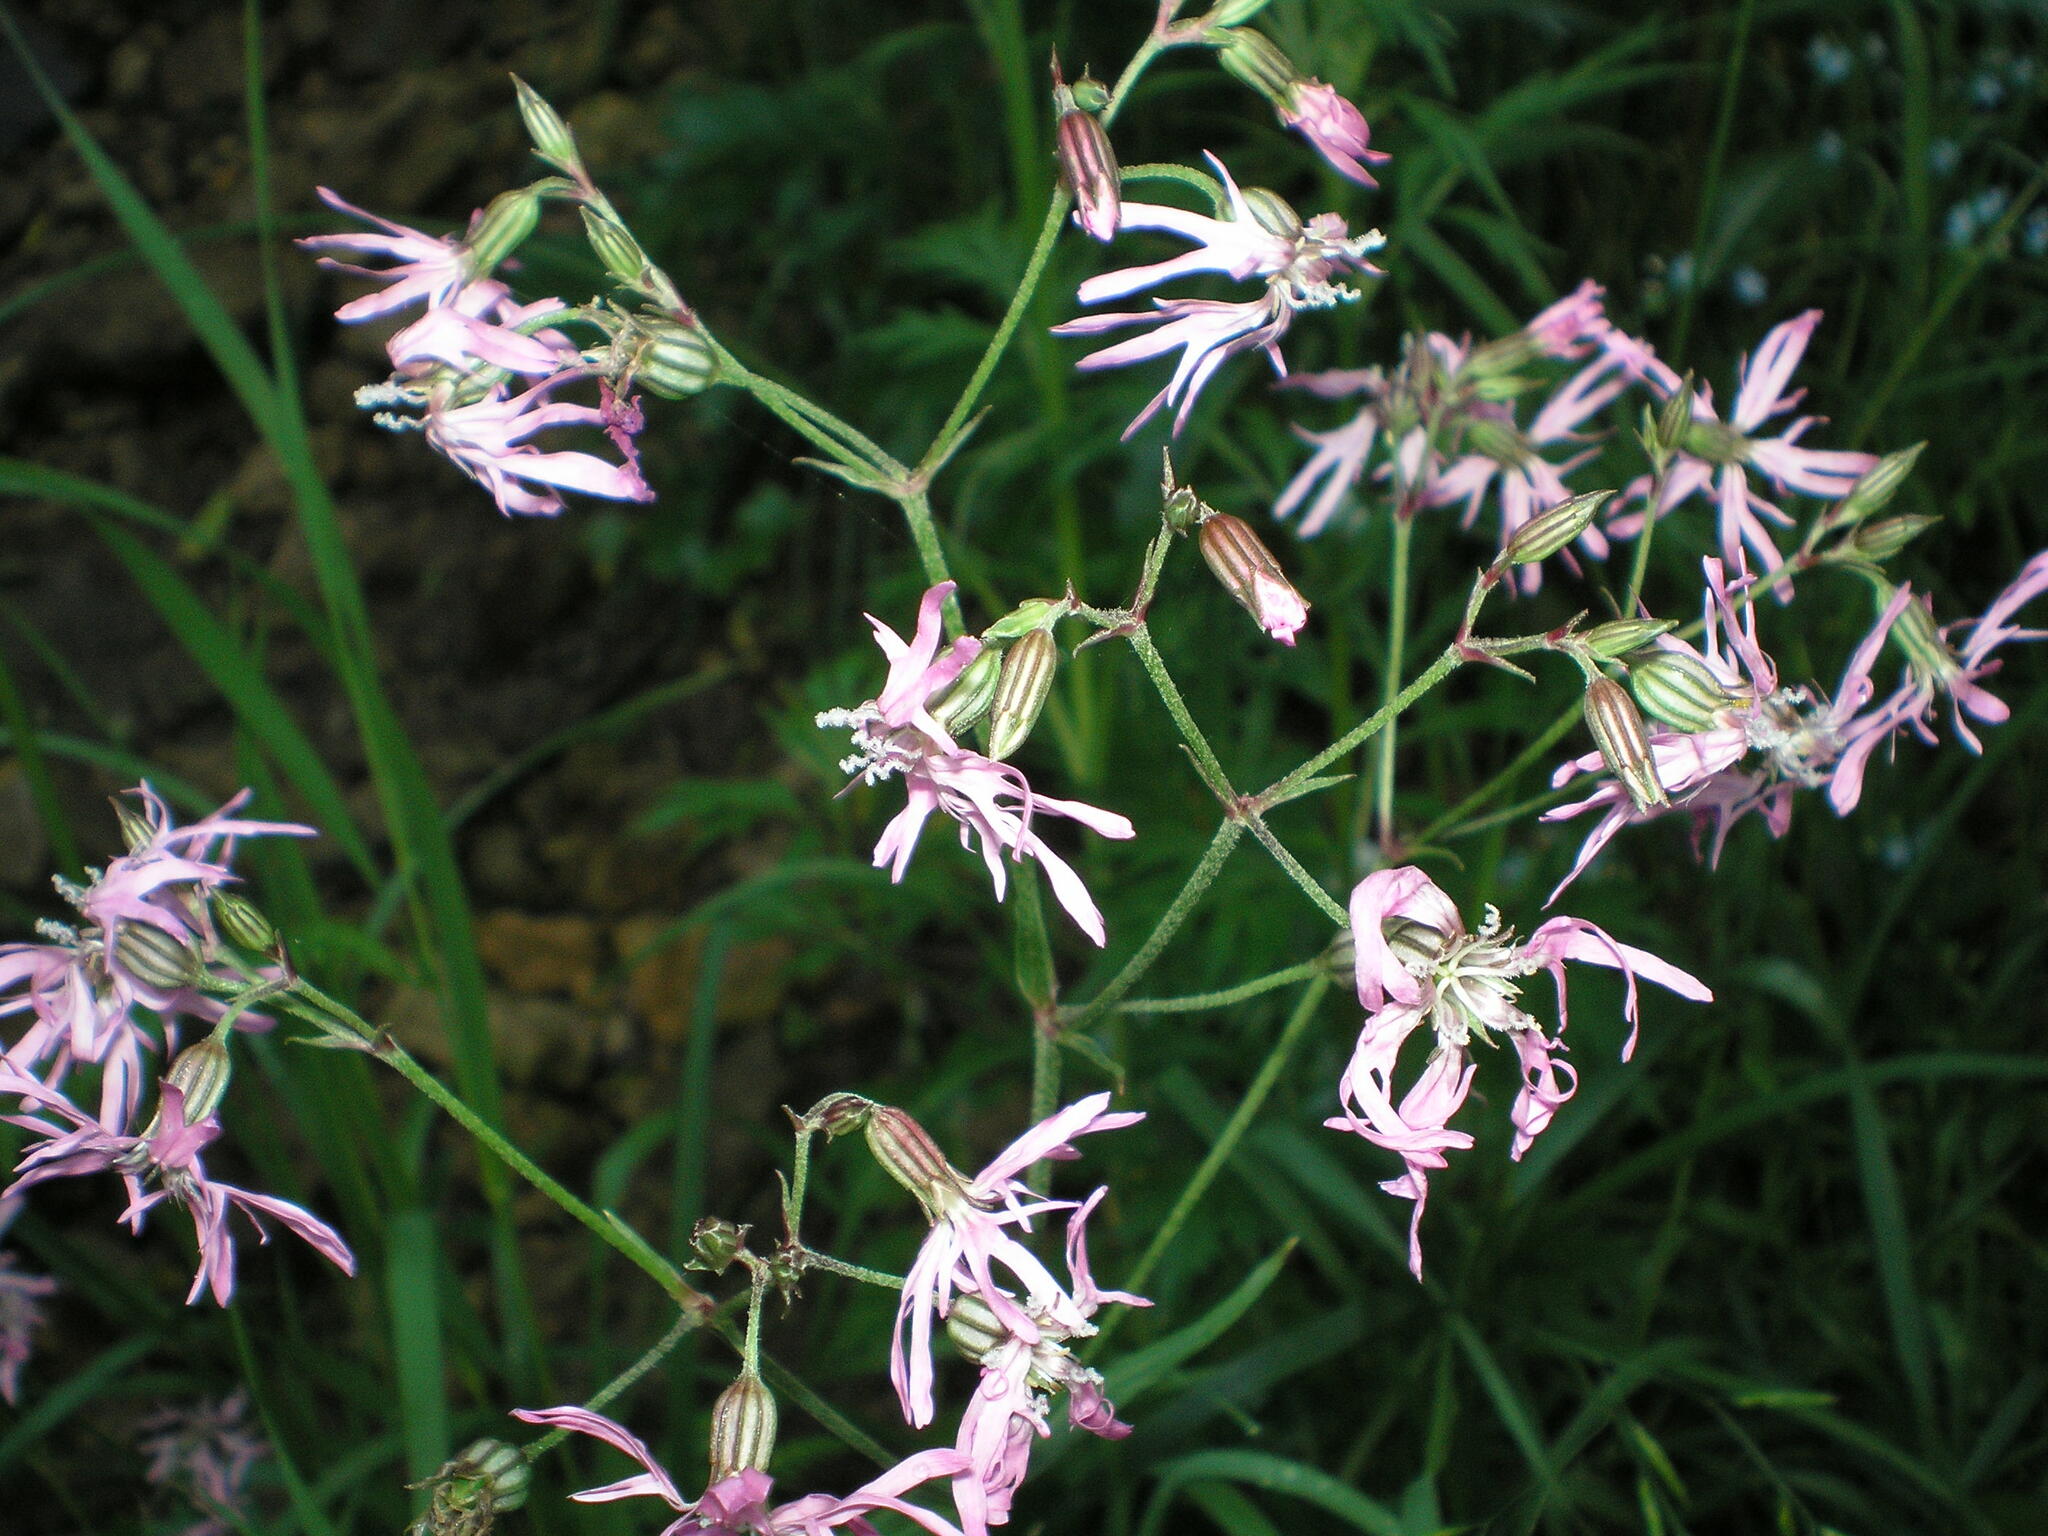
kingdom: Plantae
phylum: Tracheophyta
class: Magnoliopsida
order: Caryophyllales
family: Caryophyllaceae
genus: Silene
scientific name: Silene flos-cuculi
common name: Ragged-robin
